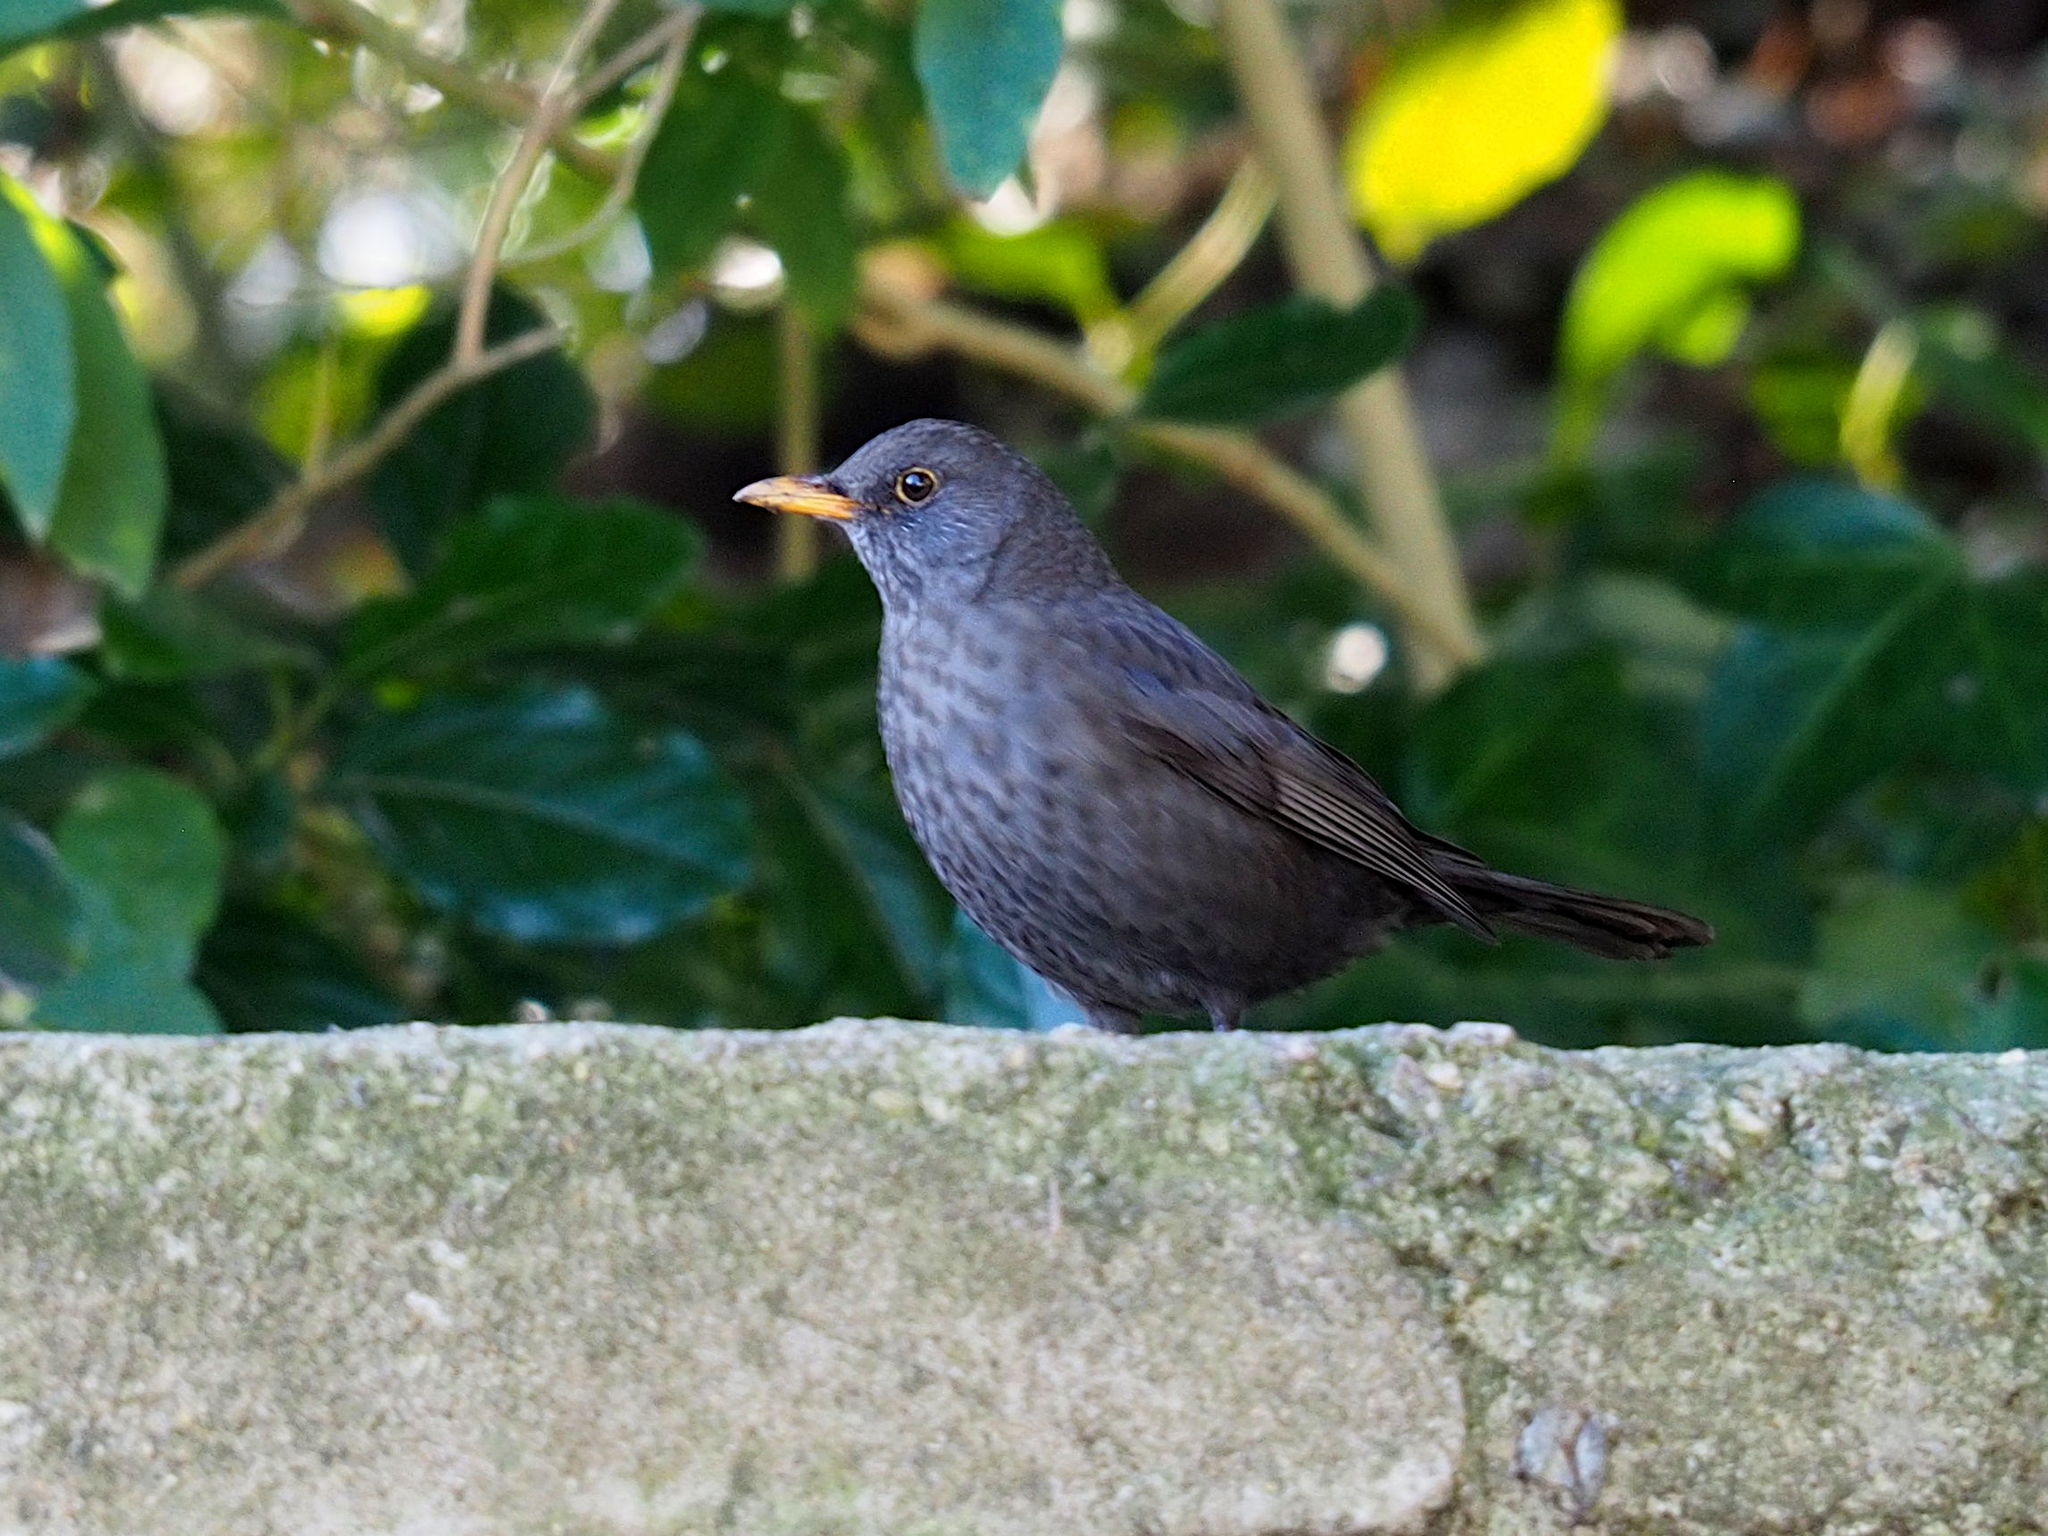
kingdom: Animalia
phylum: Chordata
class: Aves
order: Passeriformes
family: Turdidae
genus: Turdus
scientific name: Turdus merula
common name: Common blackbird
